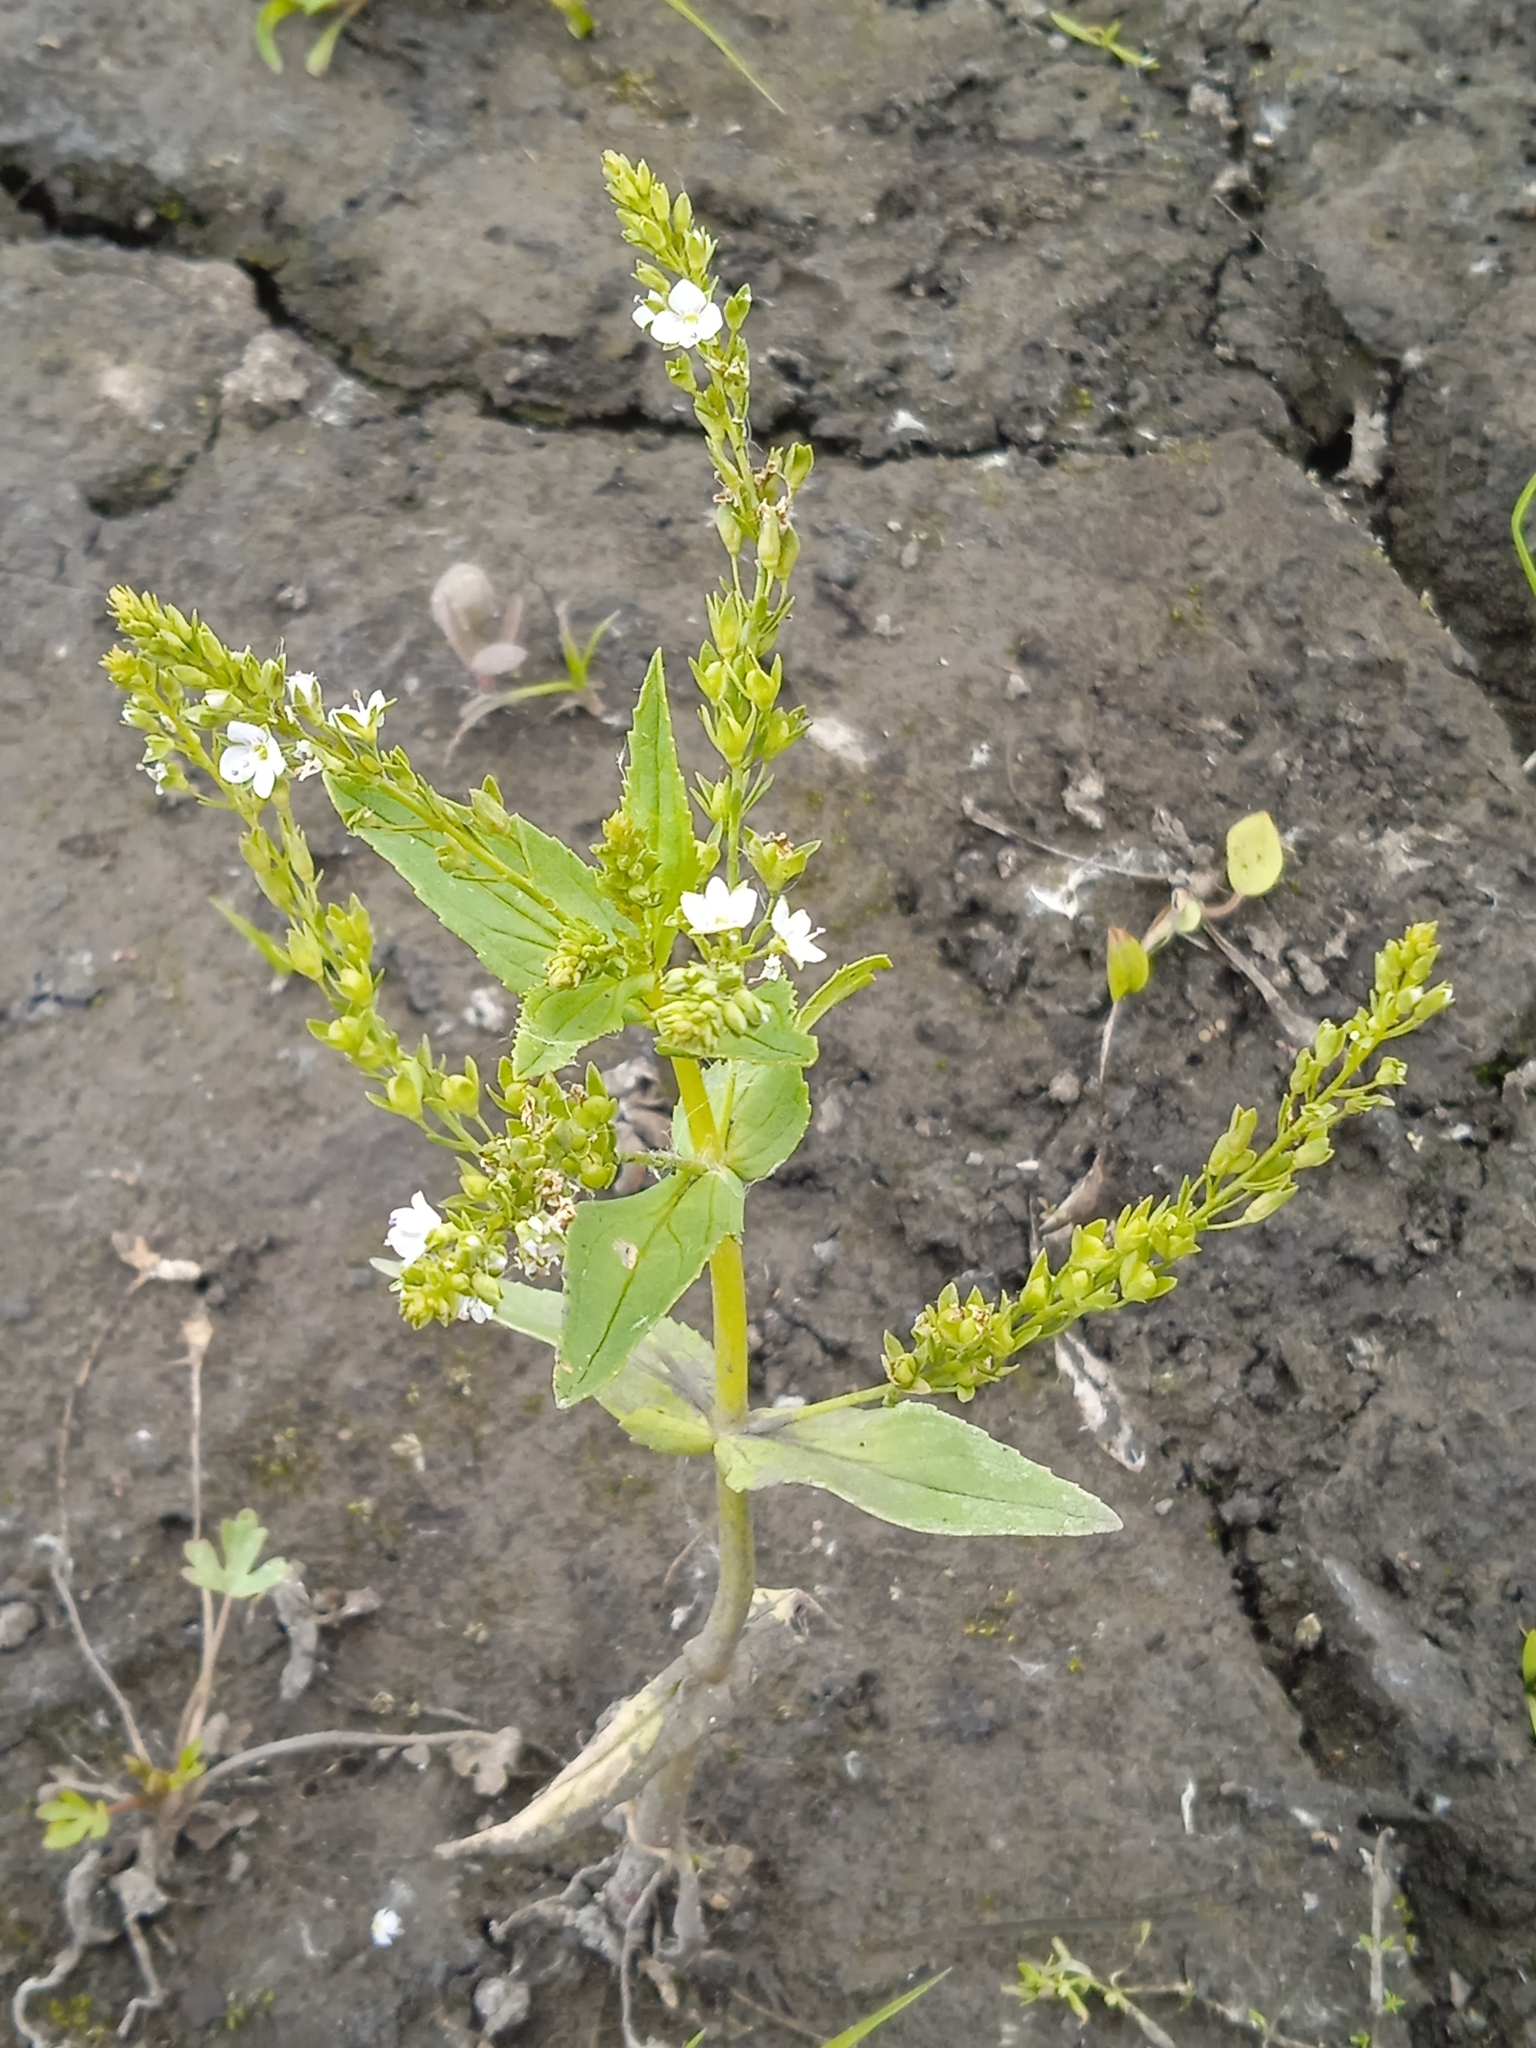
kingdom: Plantae
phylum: Tracheophyta
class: Magnoliopsida
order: Lamiales
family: Plantaginaceae
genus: Veronica
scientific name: Veronica anagallis-aquatica
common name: Water speedwell
